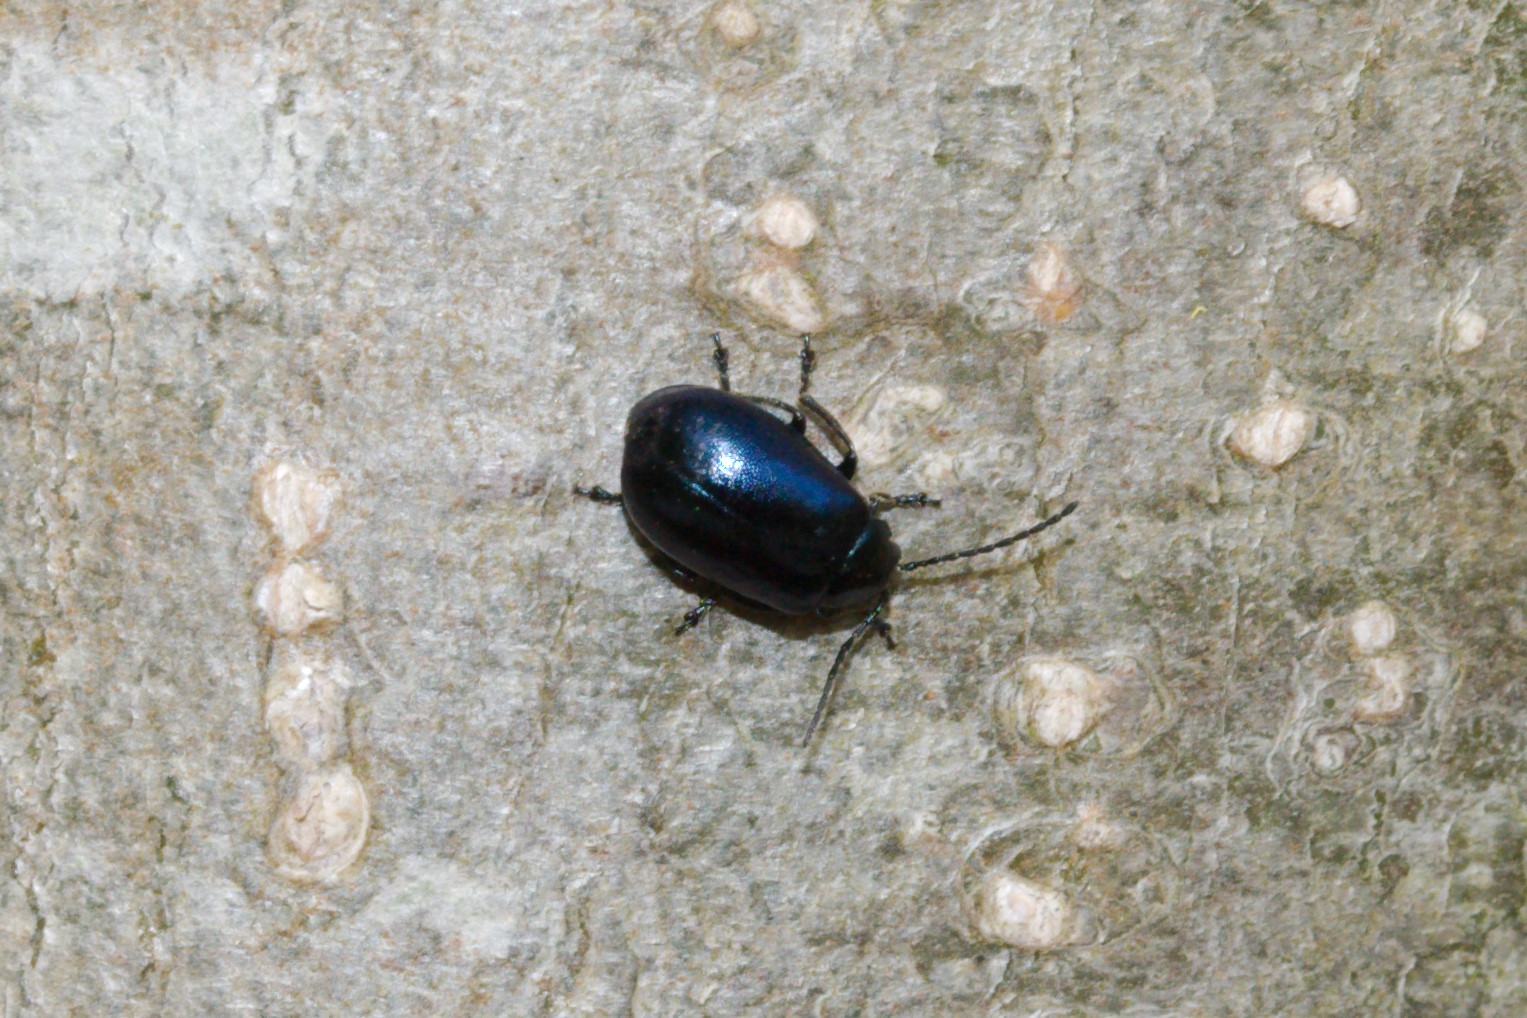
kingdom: Animalia
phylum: Arthropoda
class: Insecta
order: Coleoptera
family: Chrysomelidae
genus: Agelastica
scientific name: Agelastica alni
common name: Alder leaf beetle
